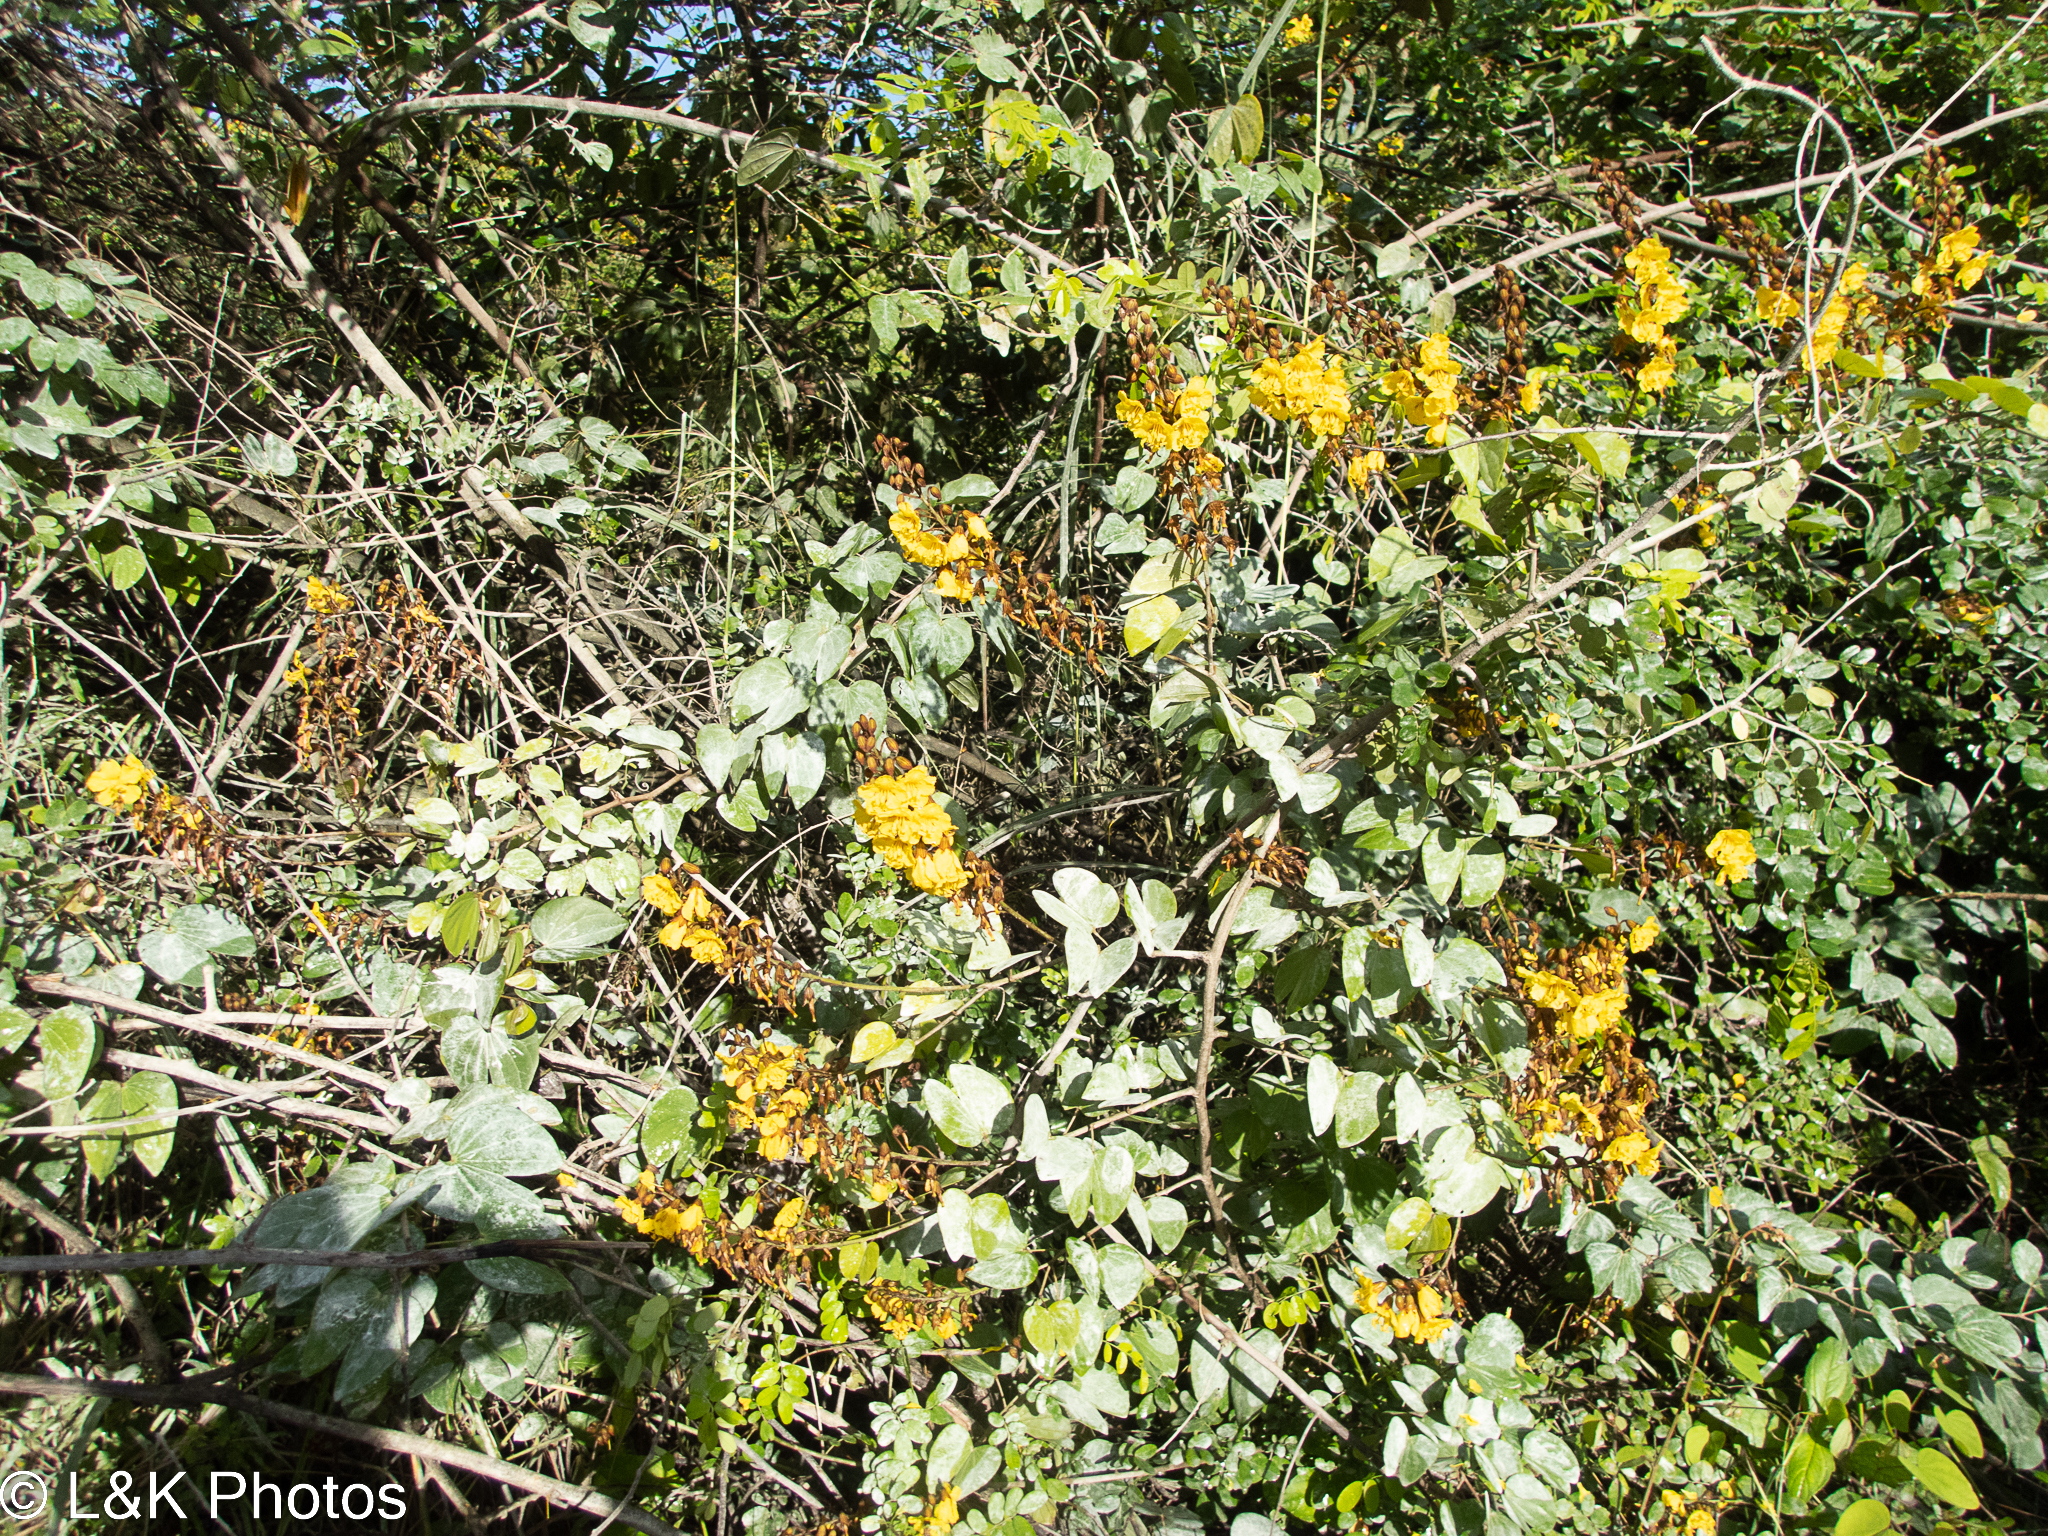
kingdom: Plantae
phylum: Tracheophyta
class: Magnoliopsida
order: Fabales
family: Fabaceae
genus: Schnella
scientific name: Schnella herrerae
